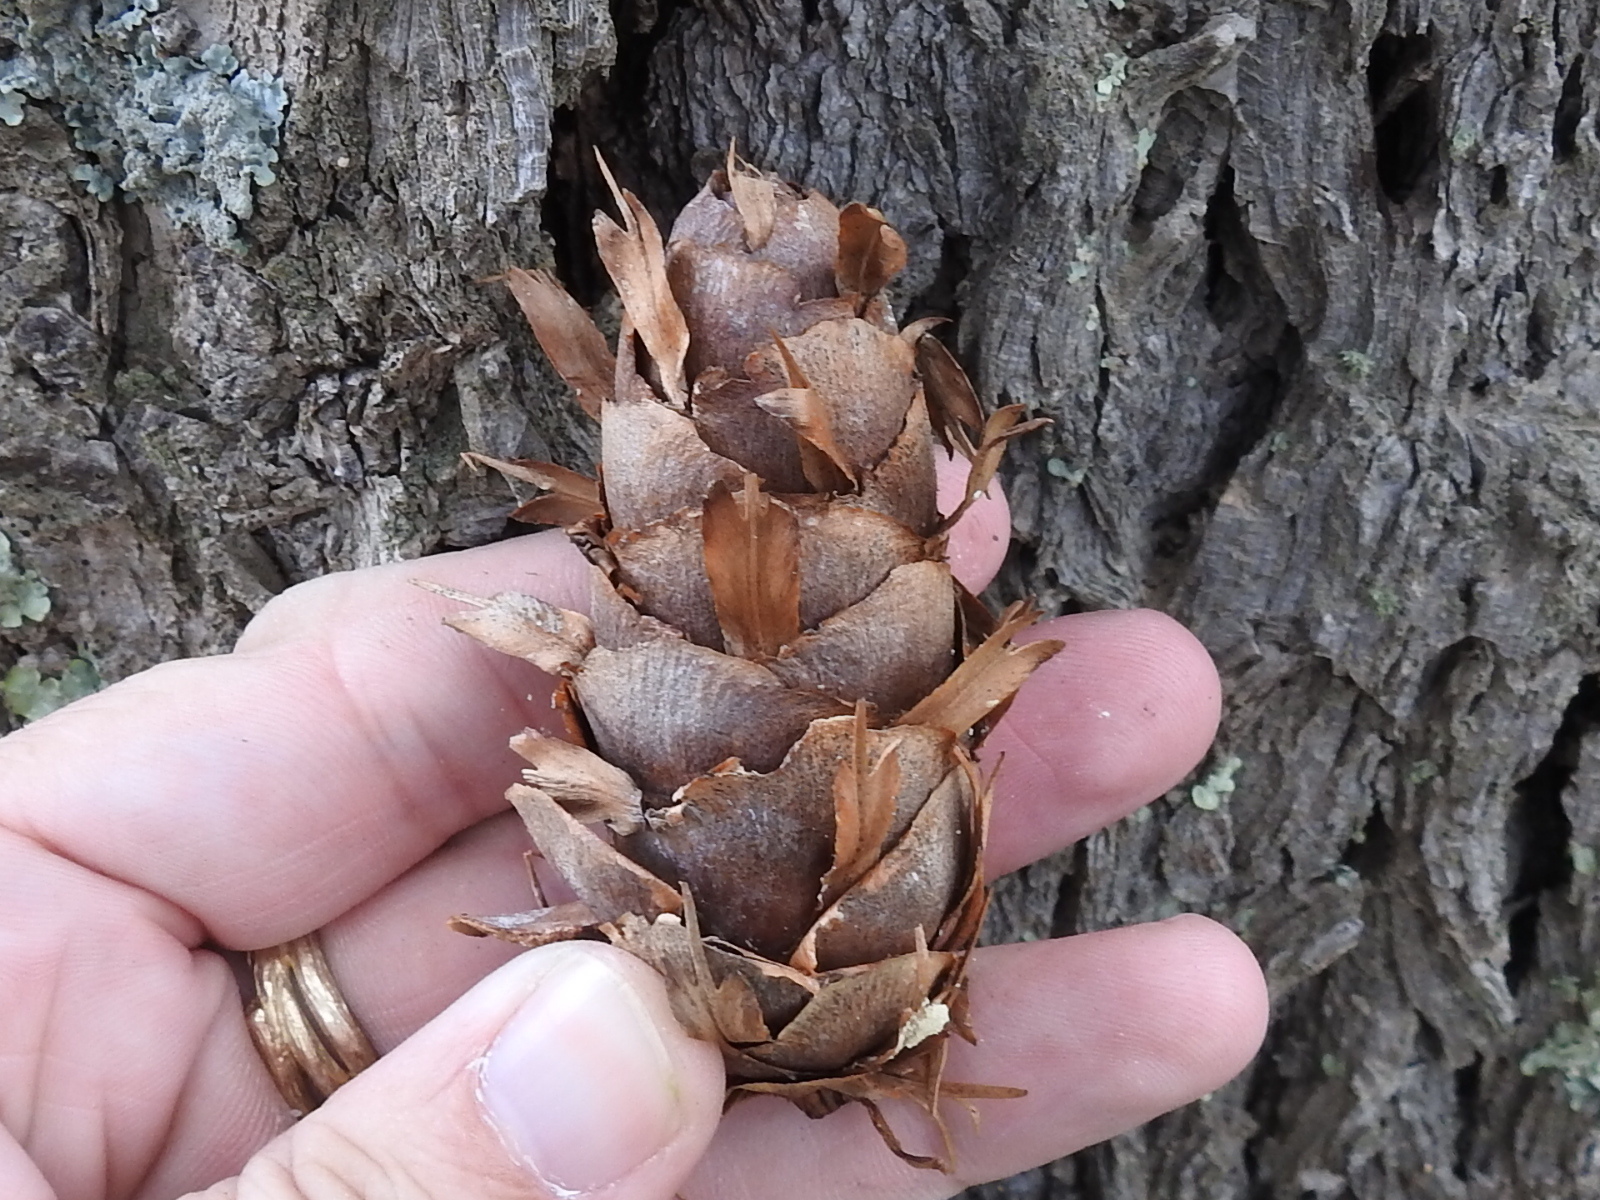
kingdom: Plantae
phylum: Tracheophyta
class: Pinopsida
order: Pinales
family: Pinaceae
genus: Pseudotsuga
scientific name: Pseudotsuga menziesii
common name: Douglas fir
